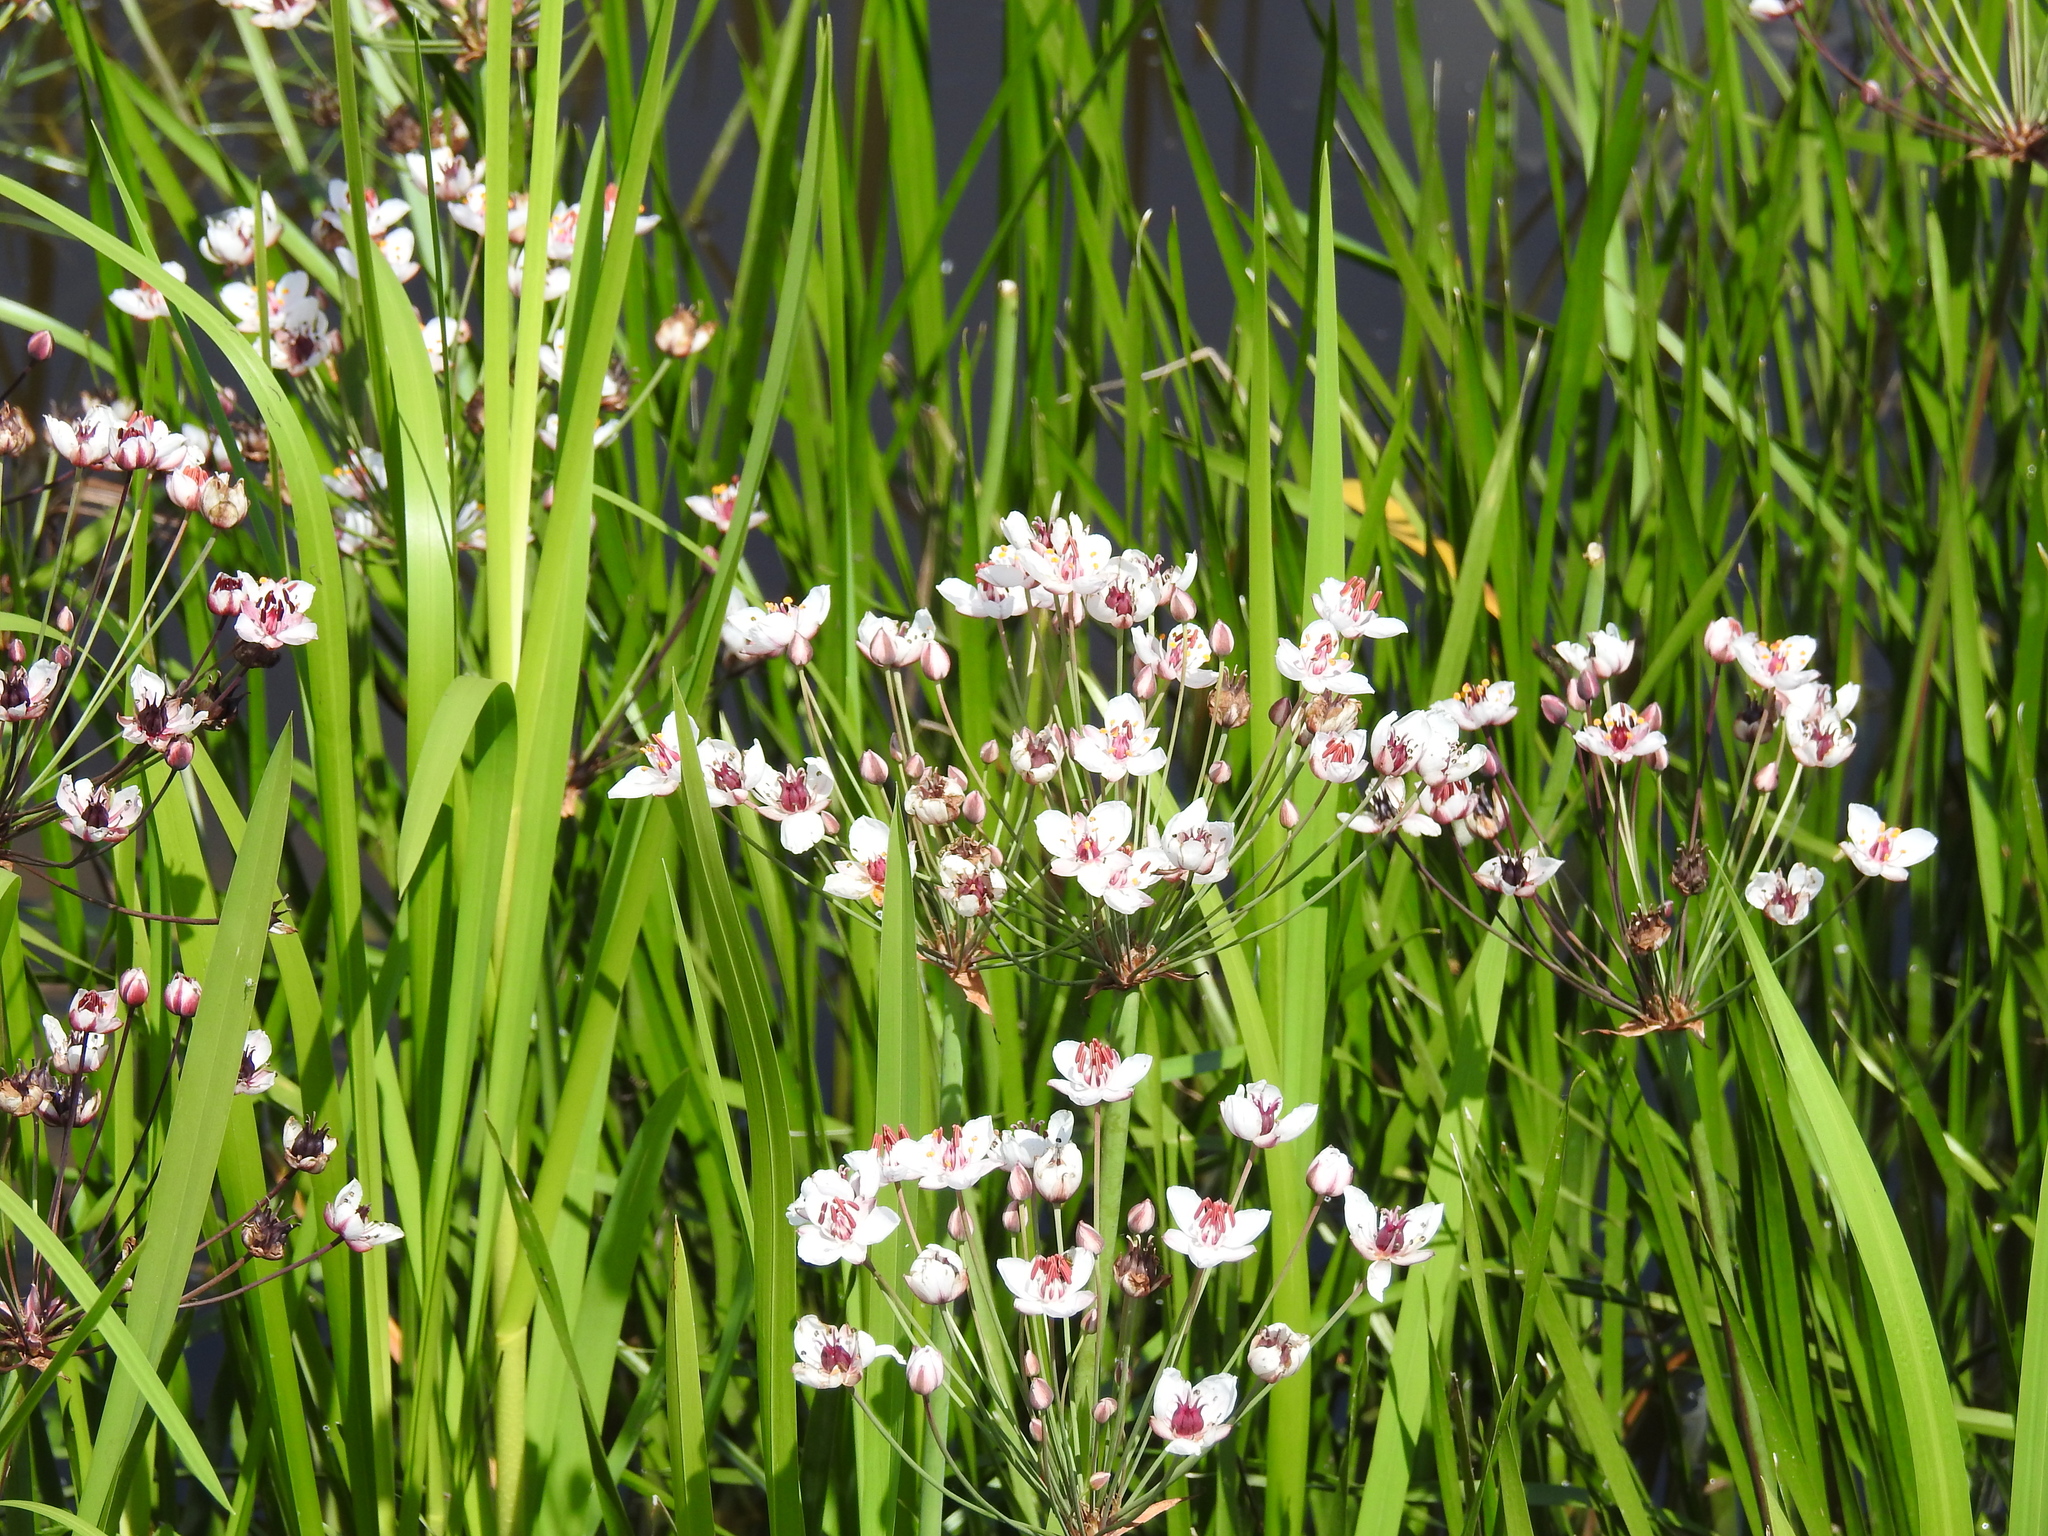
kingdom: Plantae
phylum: Tracheophyta
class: Liliopsida
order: Alismatales
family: Butomaceae
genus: Butomus
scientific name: Butomus umbellatus
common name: Flowering-rush
